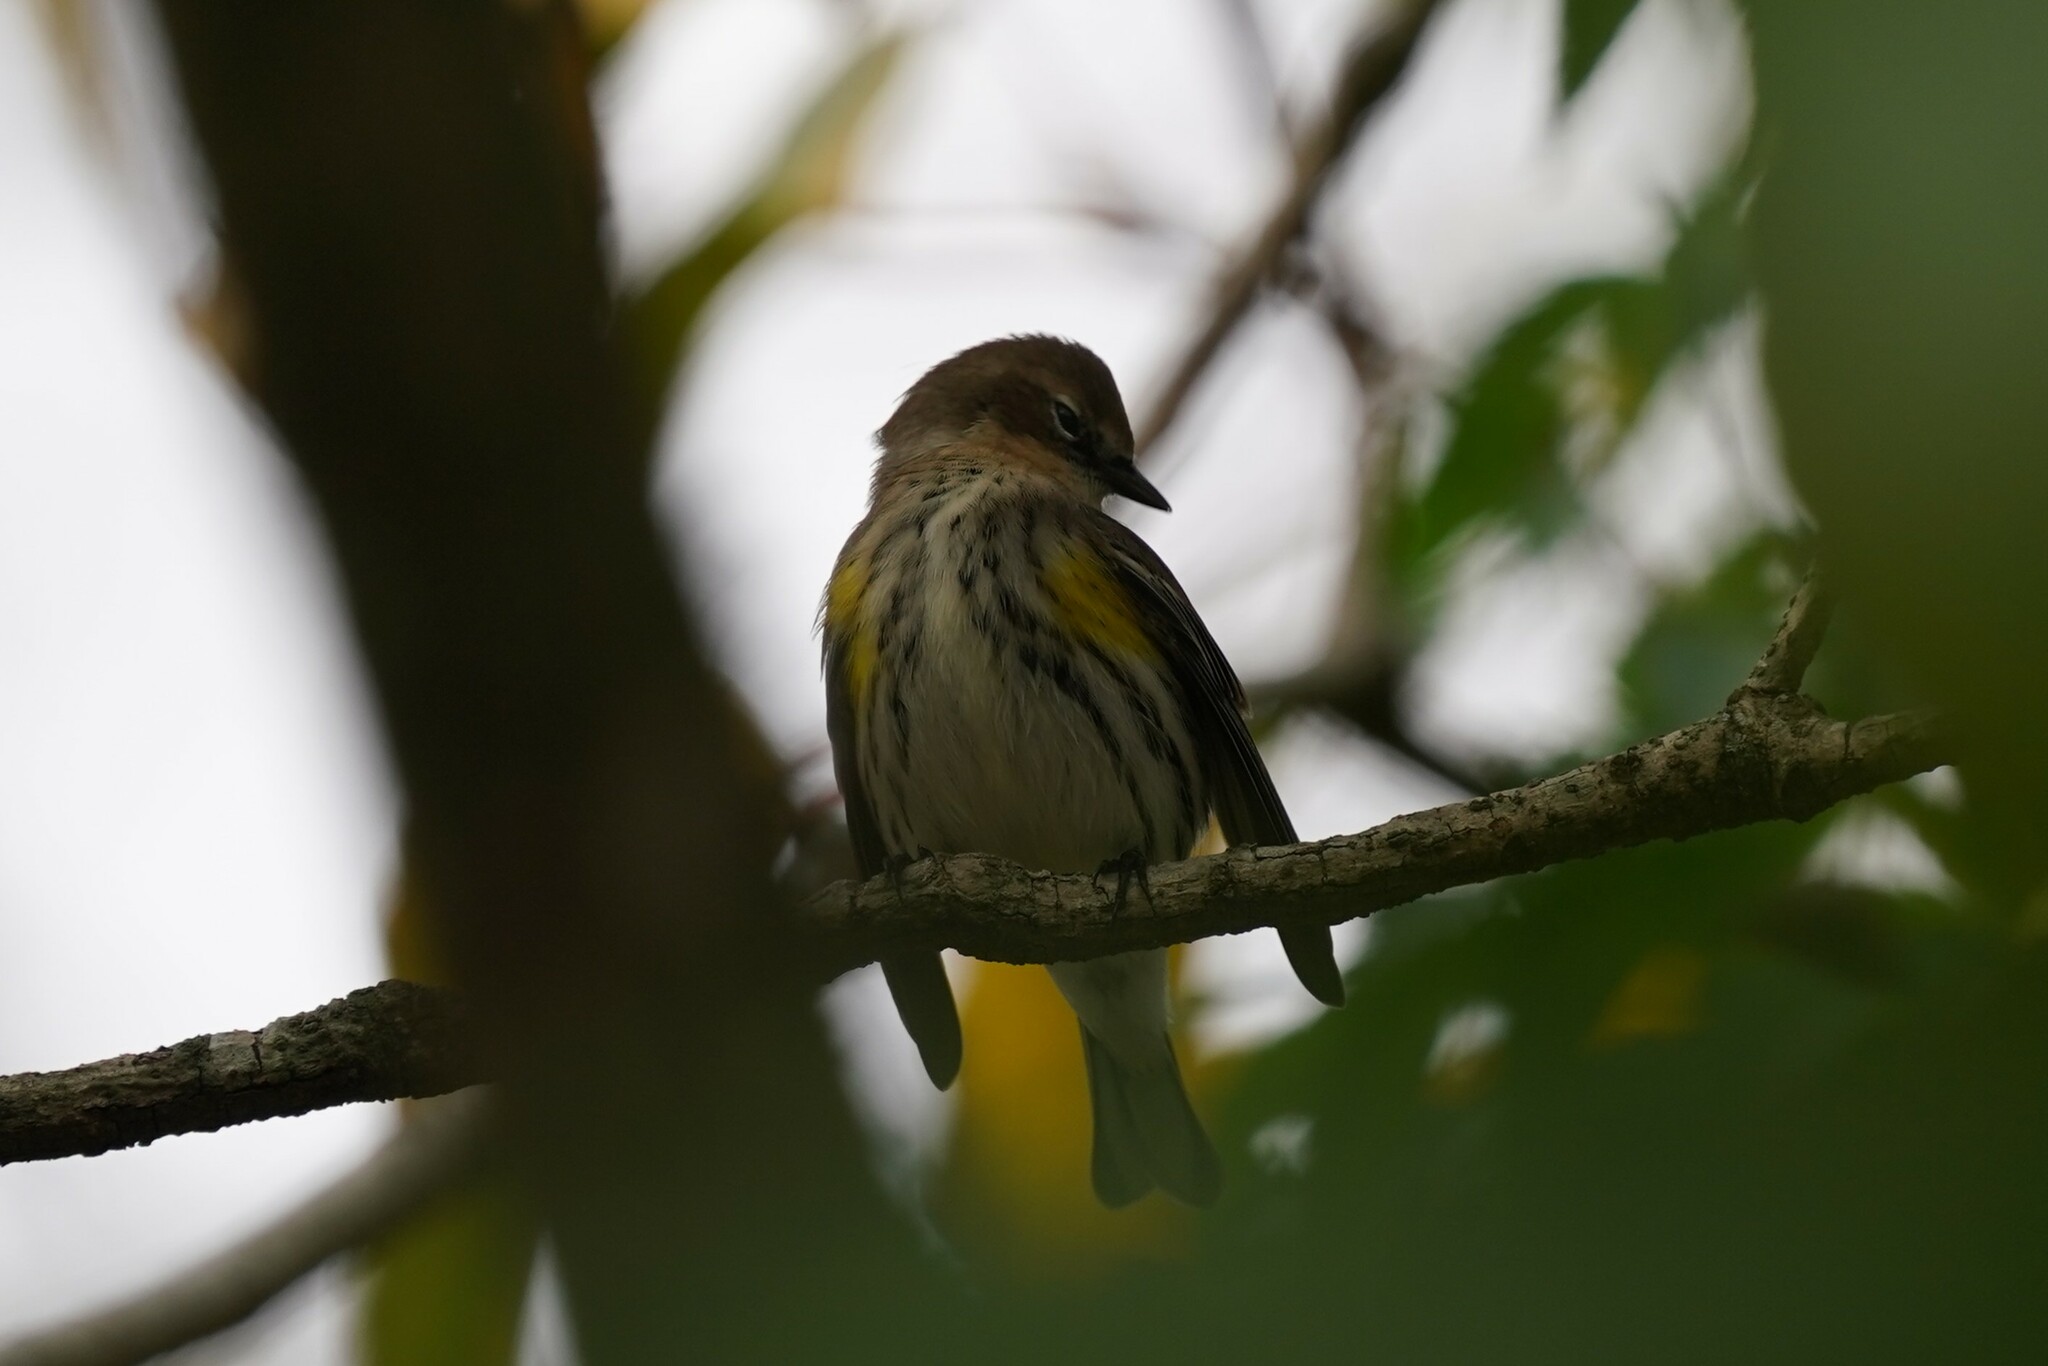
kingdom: Animalia
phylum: Chordata
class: Aves
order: Passeriformes
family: Parulidae
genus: Setophaga
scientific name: Setophaga coronata
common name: Myrtle warbler
